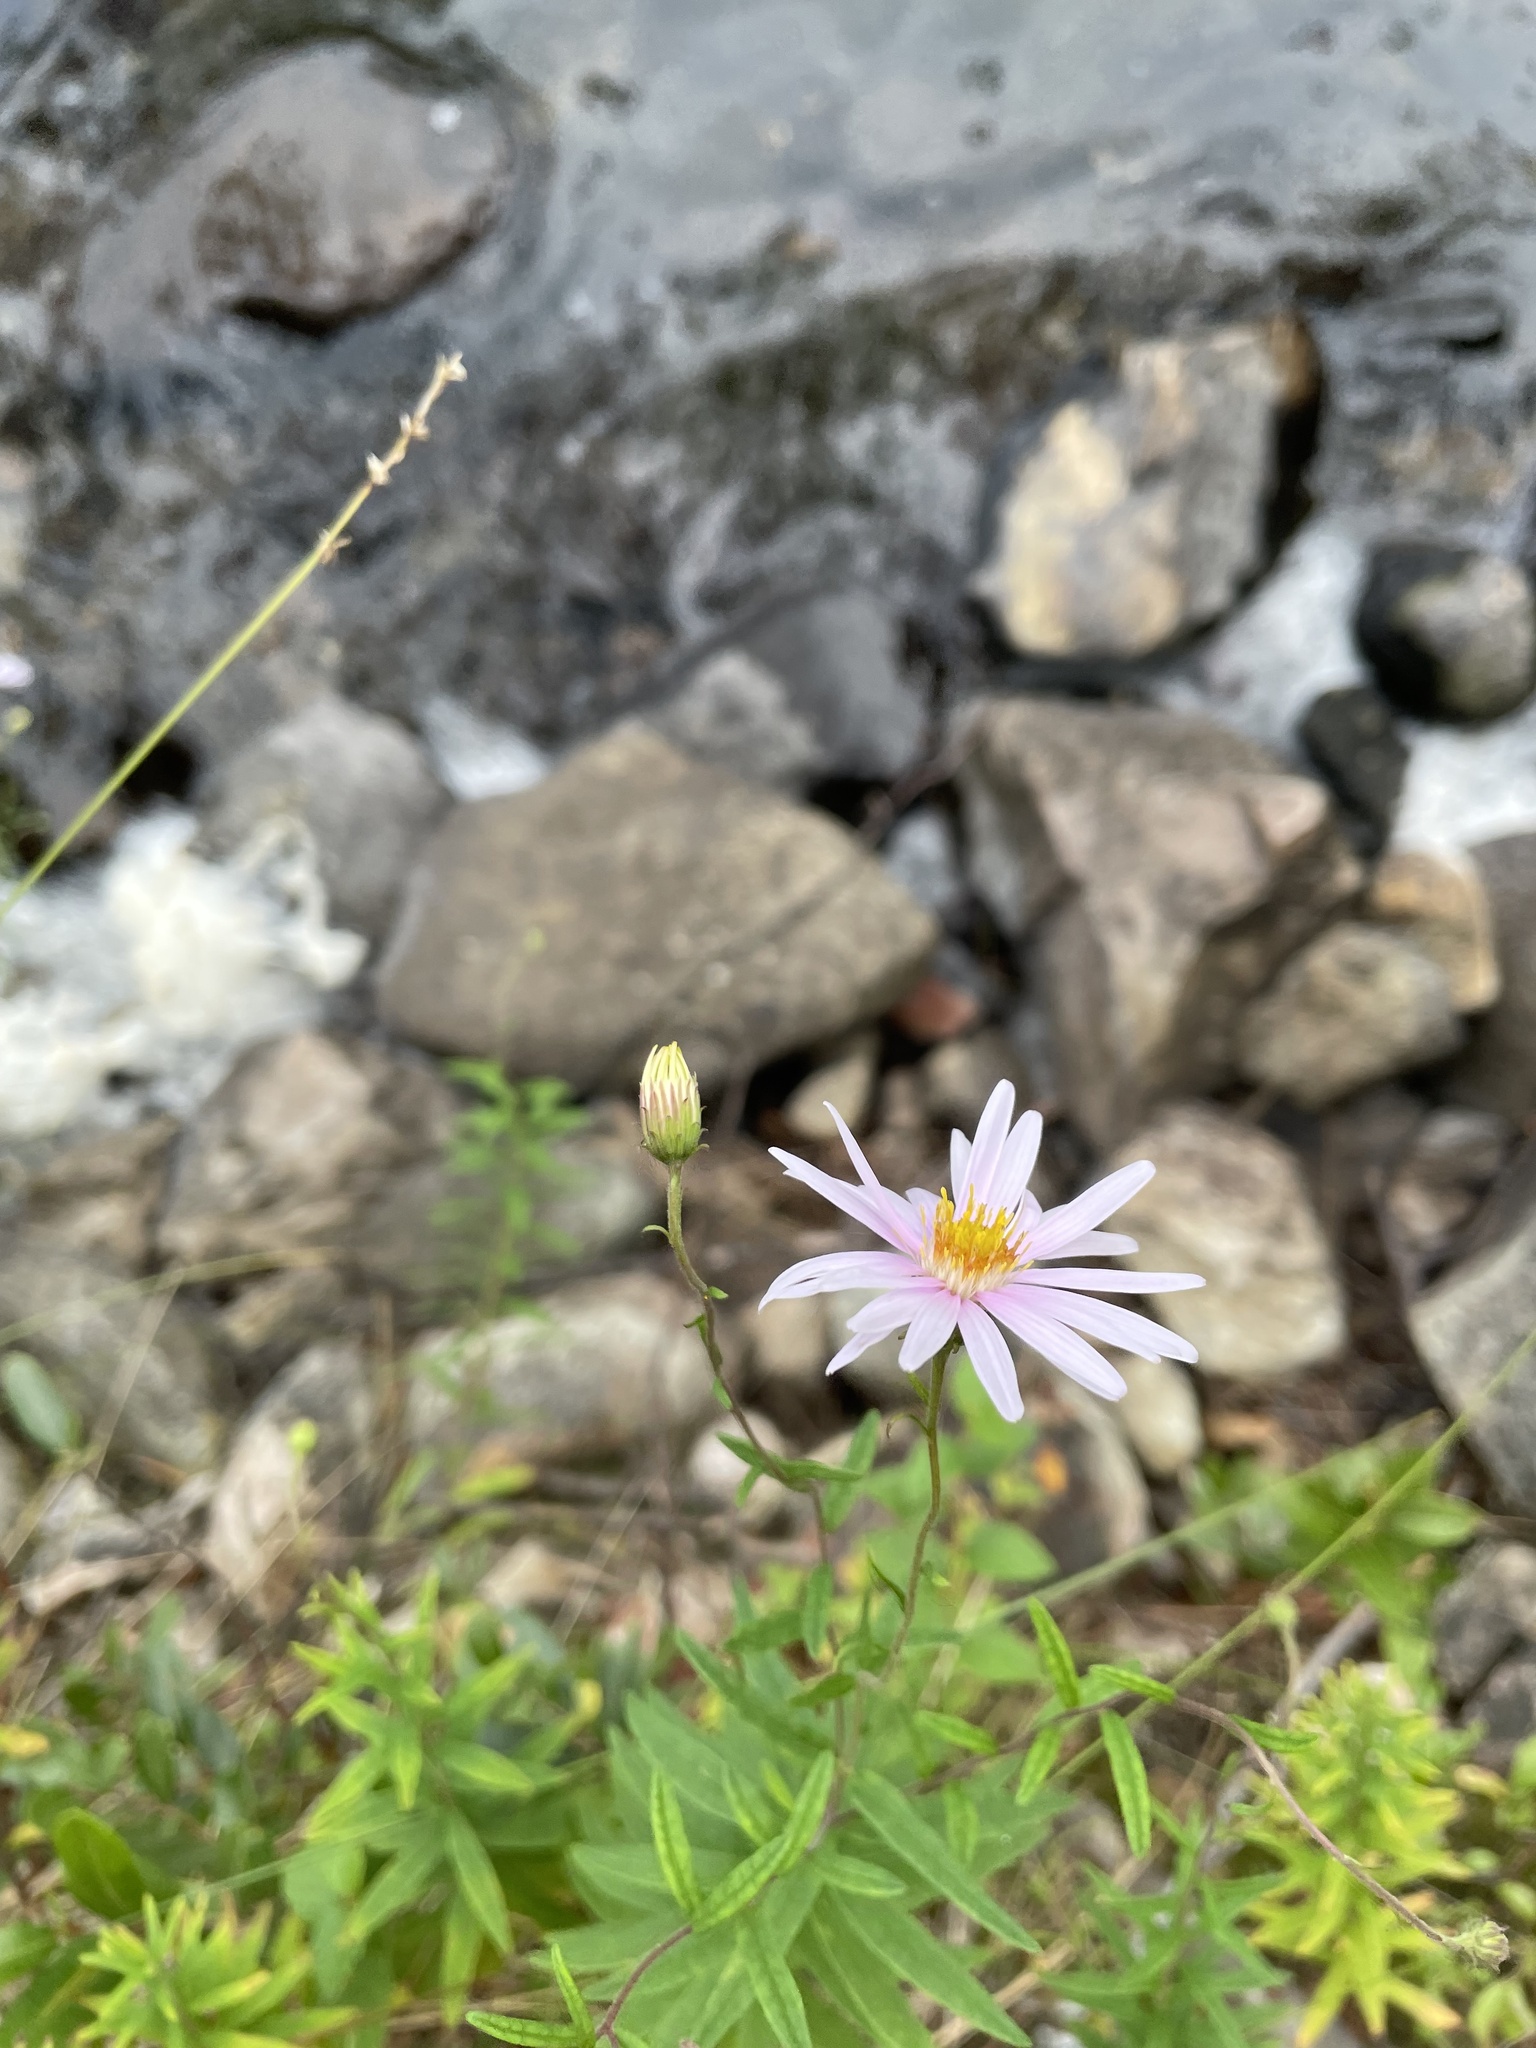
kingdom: Plantae
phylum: Tracheophyta
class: Magnoliopsida
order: Asterales
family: Asteraceae
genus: Oclemena
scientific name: Oclemena nemoralis
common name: Bog aster
